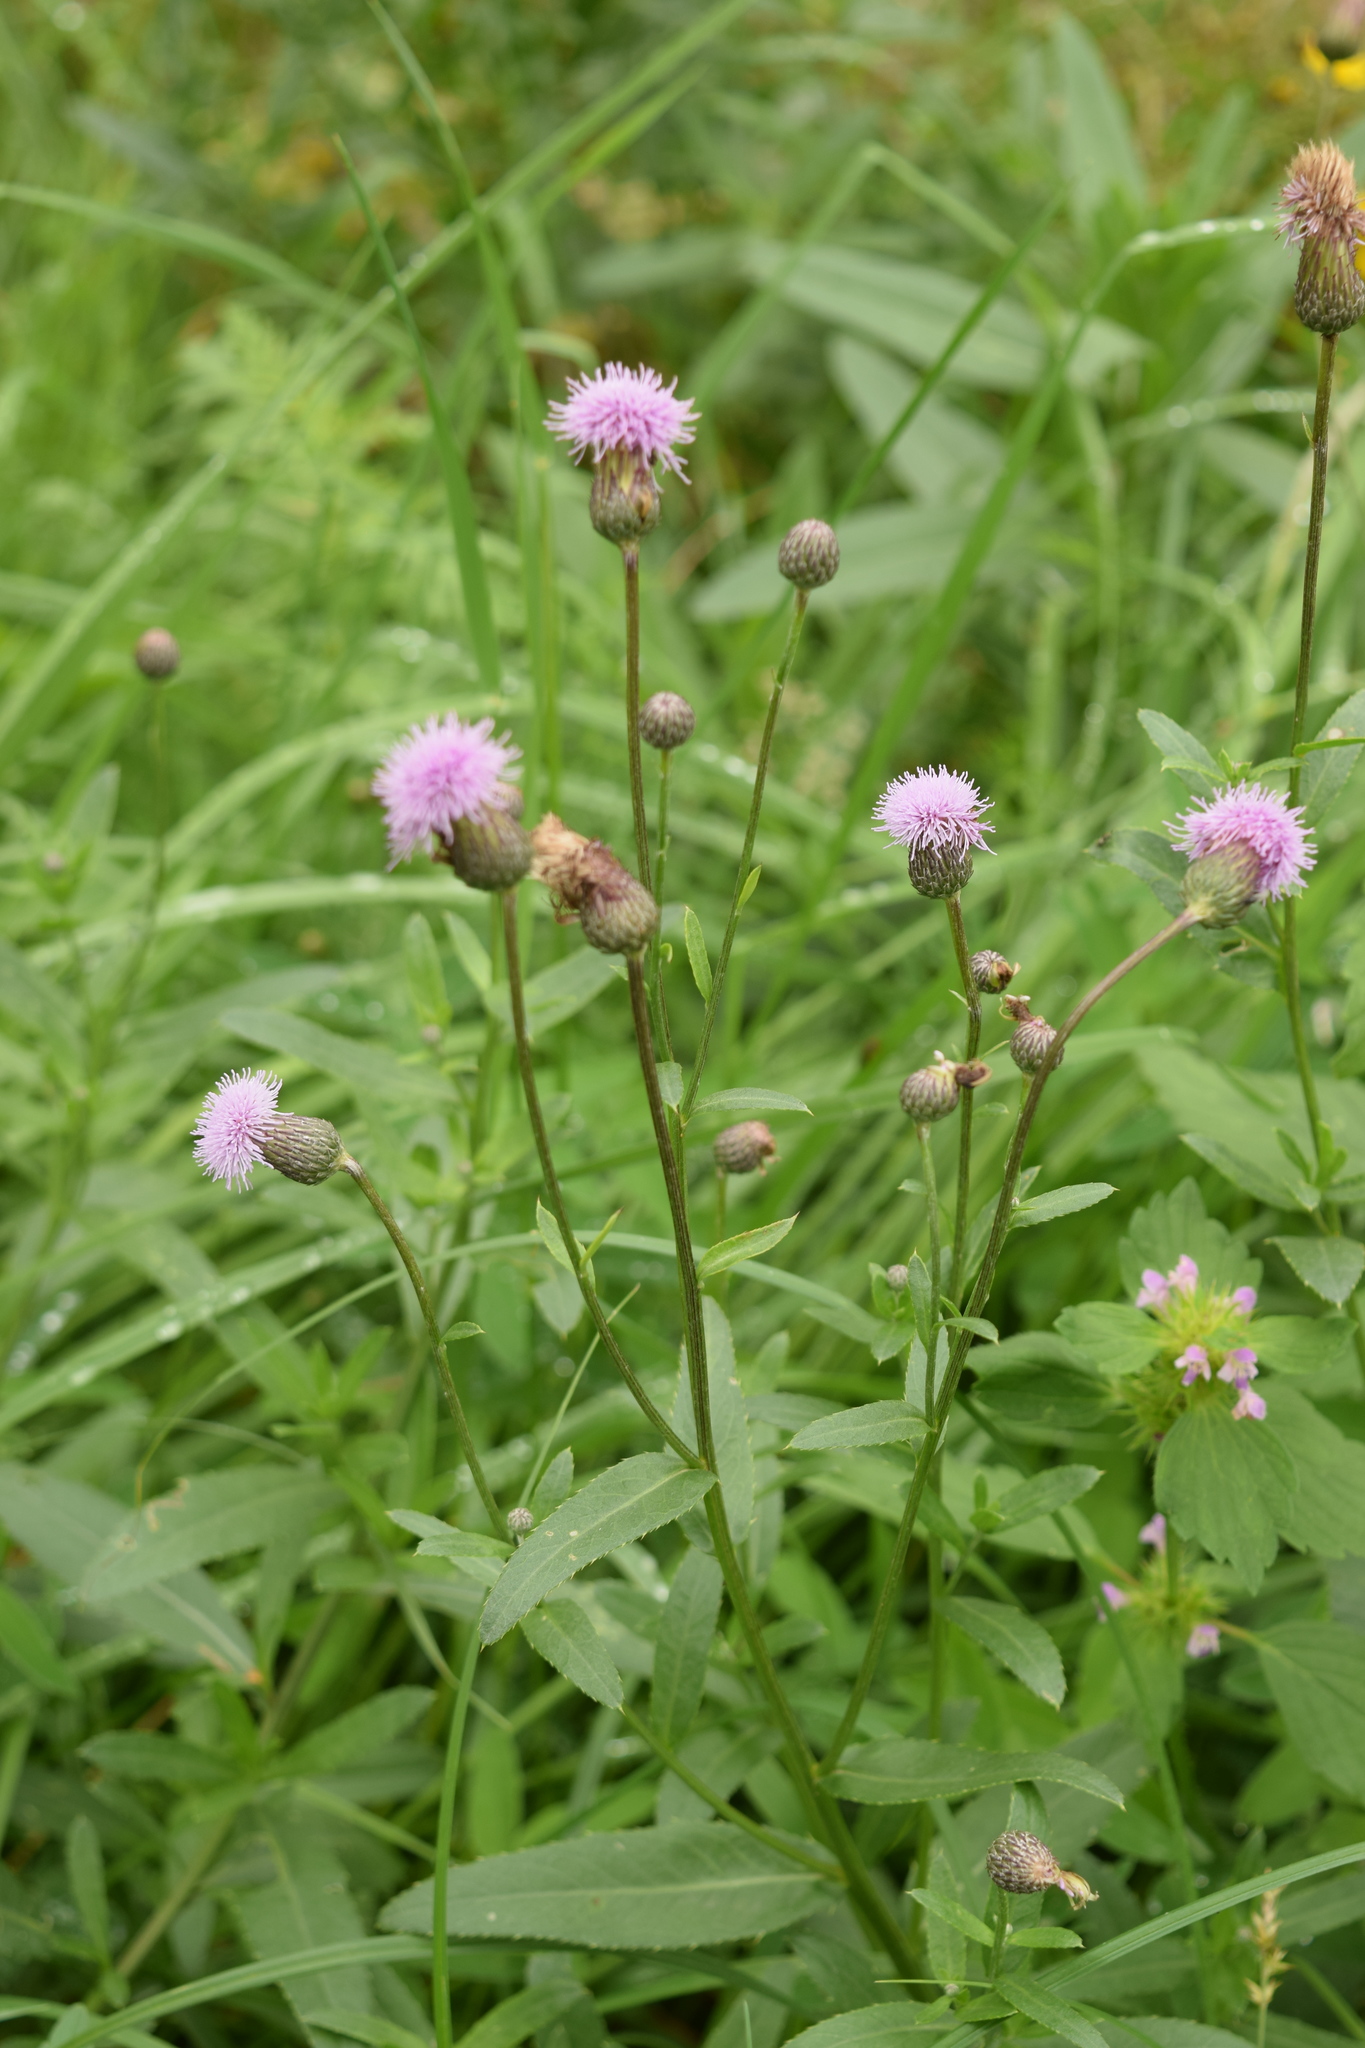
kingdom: Plantae
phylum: Tracheophyta
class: Magnoliopsida
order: Asterales
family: Asteraceae
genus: Cirsium
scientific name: Cirsium arvense
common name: Creeping thistle
